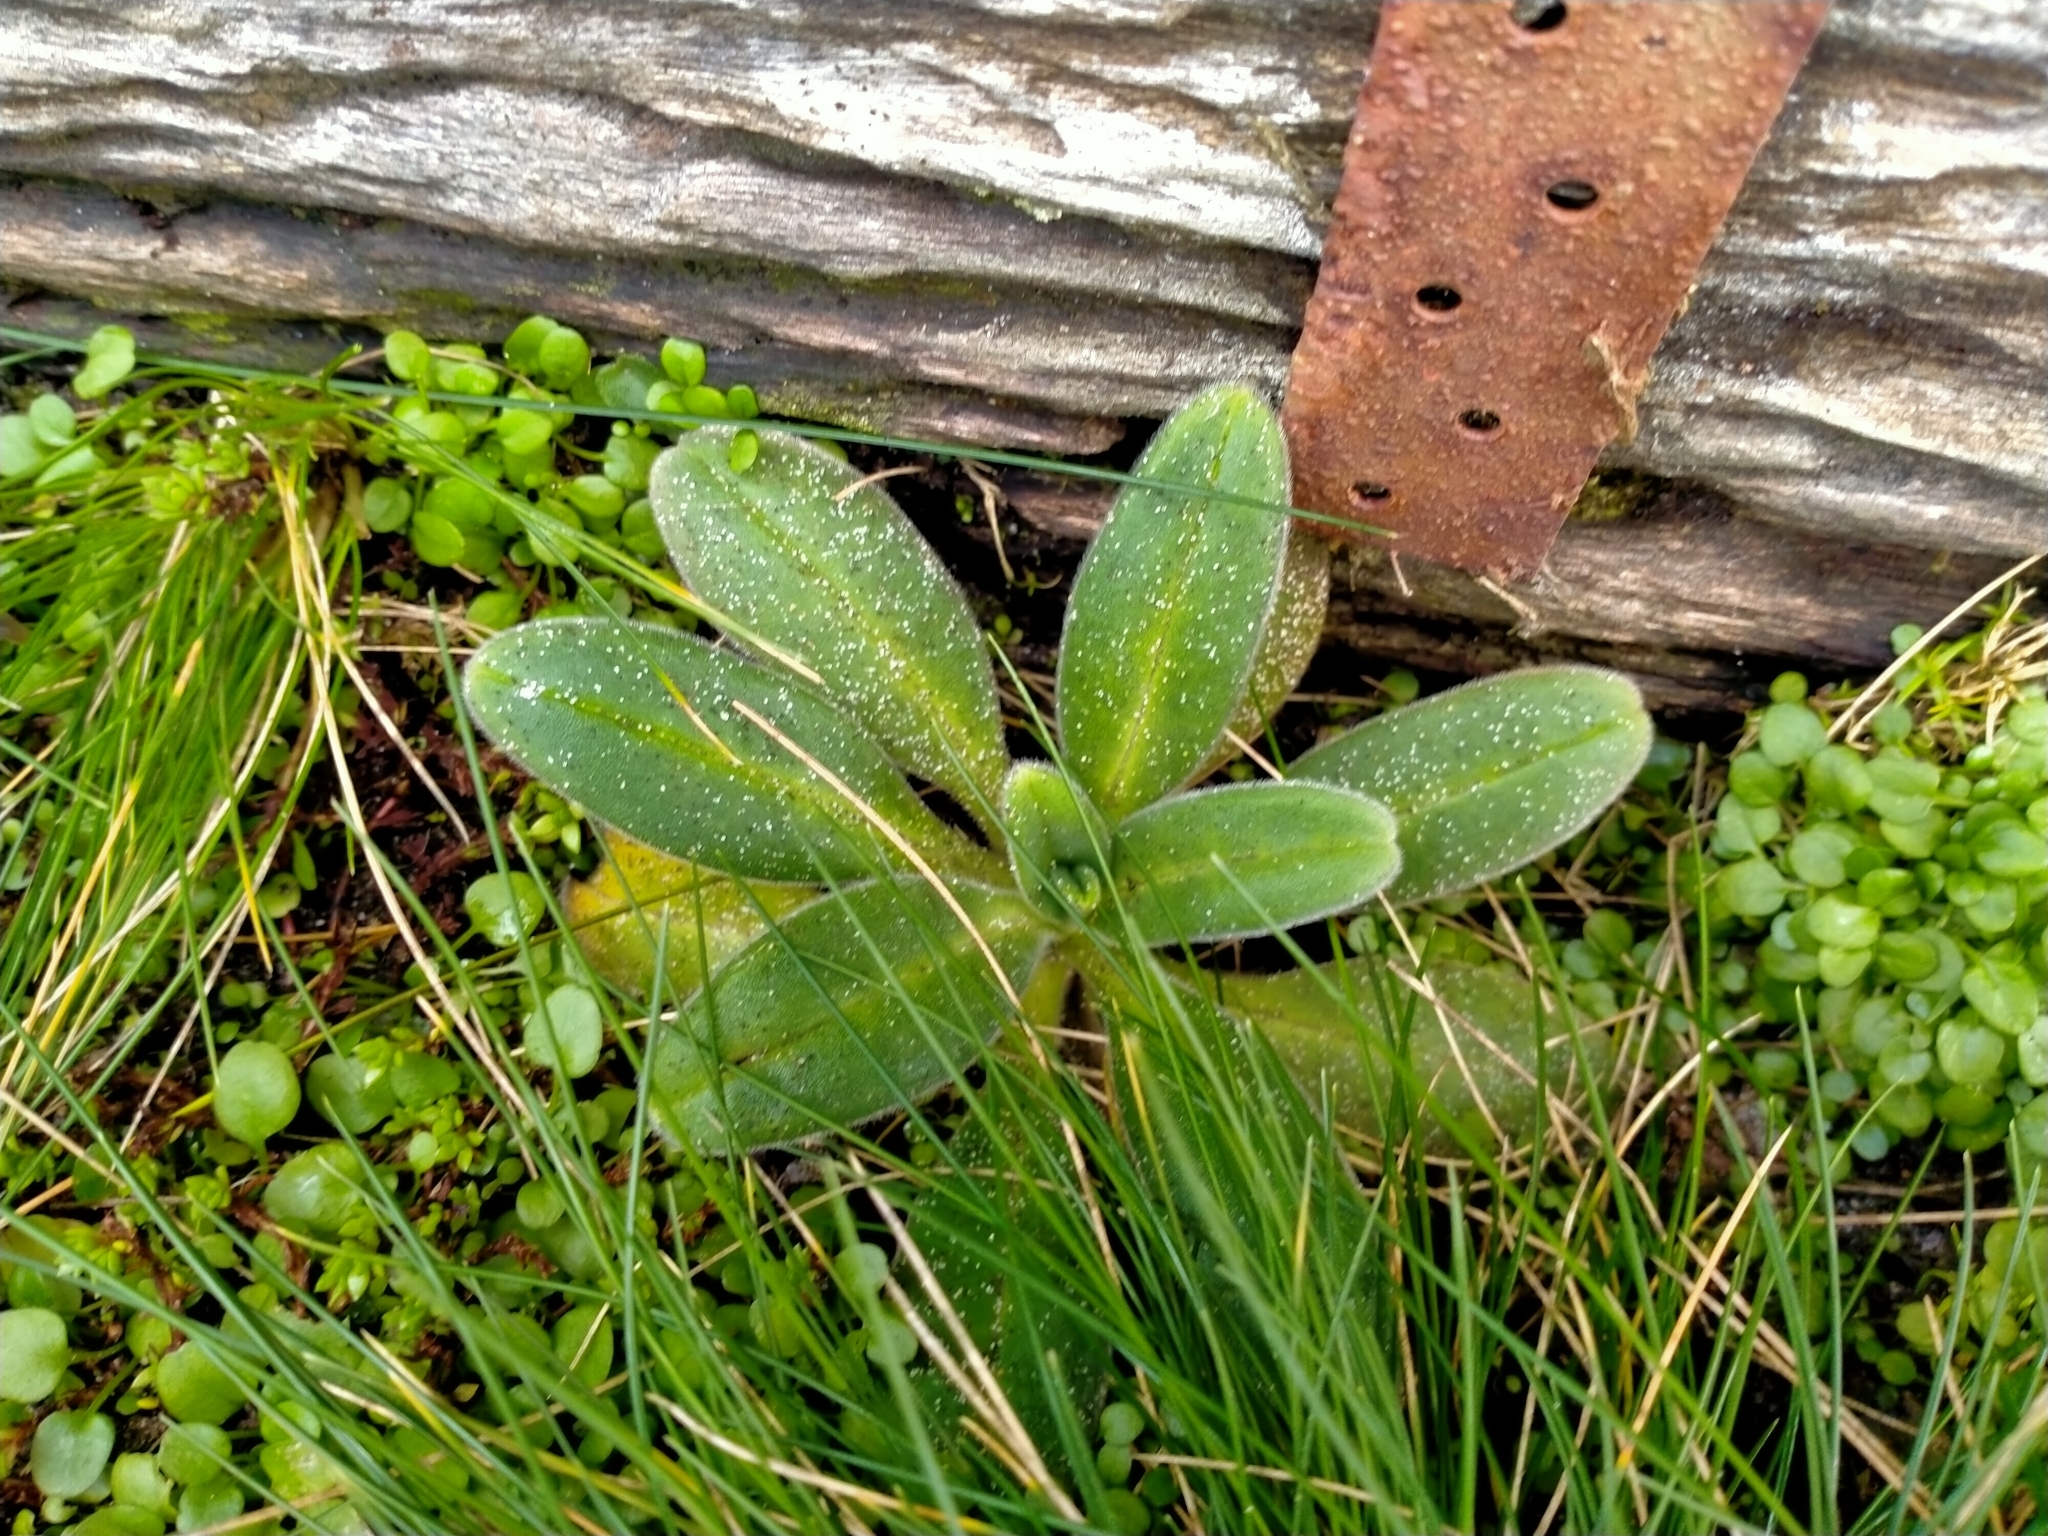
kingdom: Plantae
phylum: Tracheophyta
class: Magnoliopsida
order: Boraginales
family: Boraginaceae
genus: Myosotis
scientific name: Myosotis rakiura
